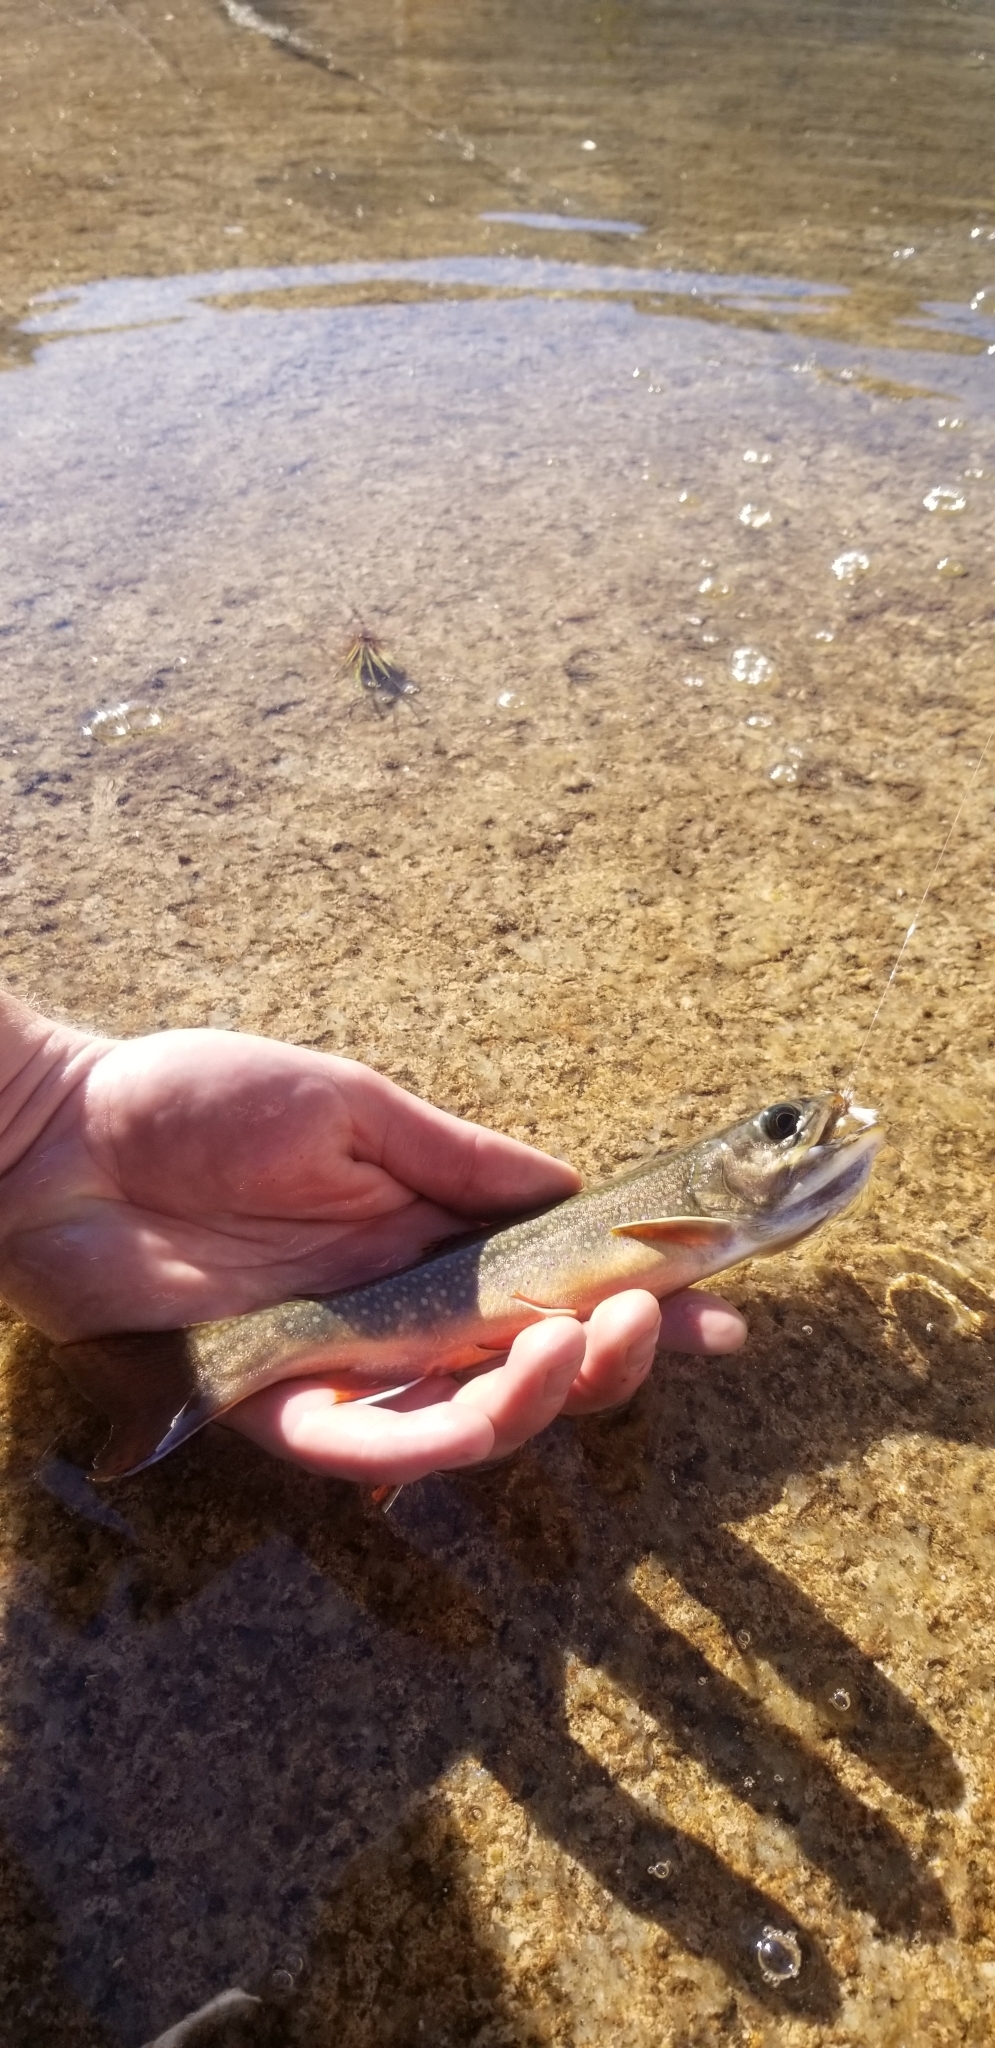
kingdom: Animalia
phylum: Chordata
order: Salmoniformes
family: Salmonidae
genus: Salvelinus
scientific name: Salvelinus fontinalis
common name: Brook trout
